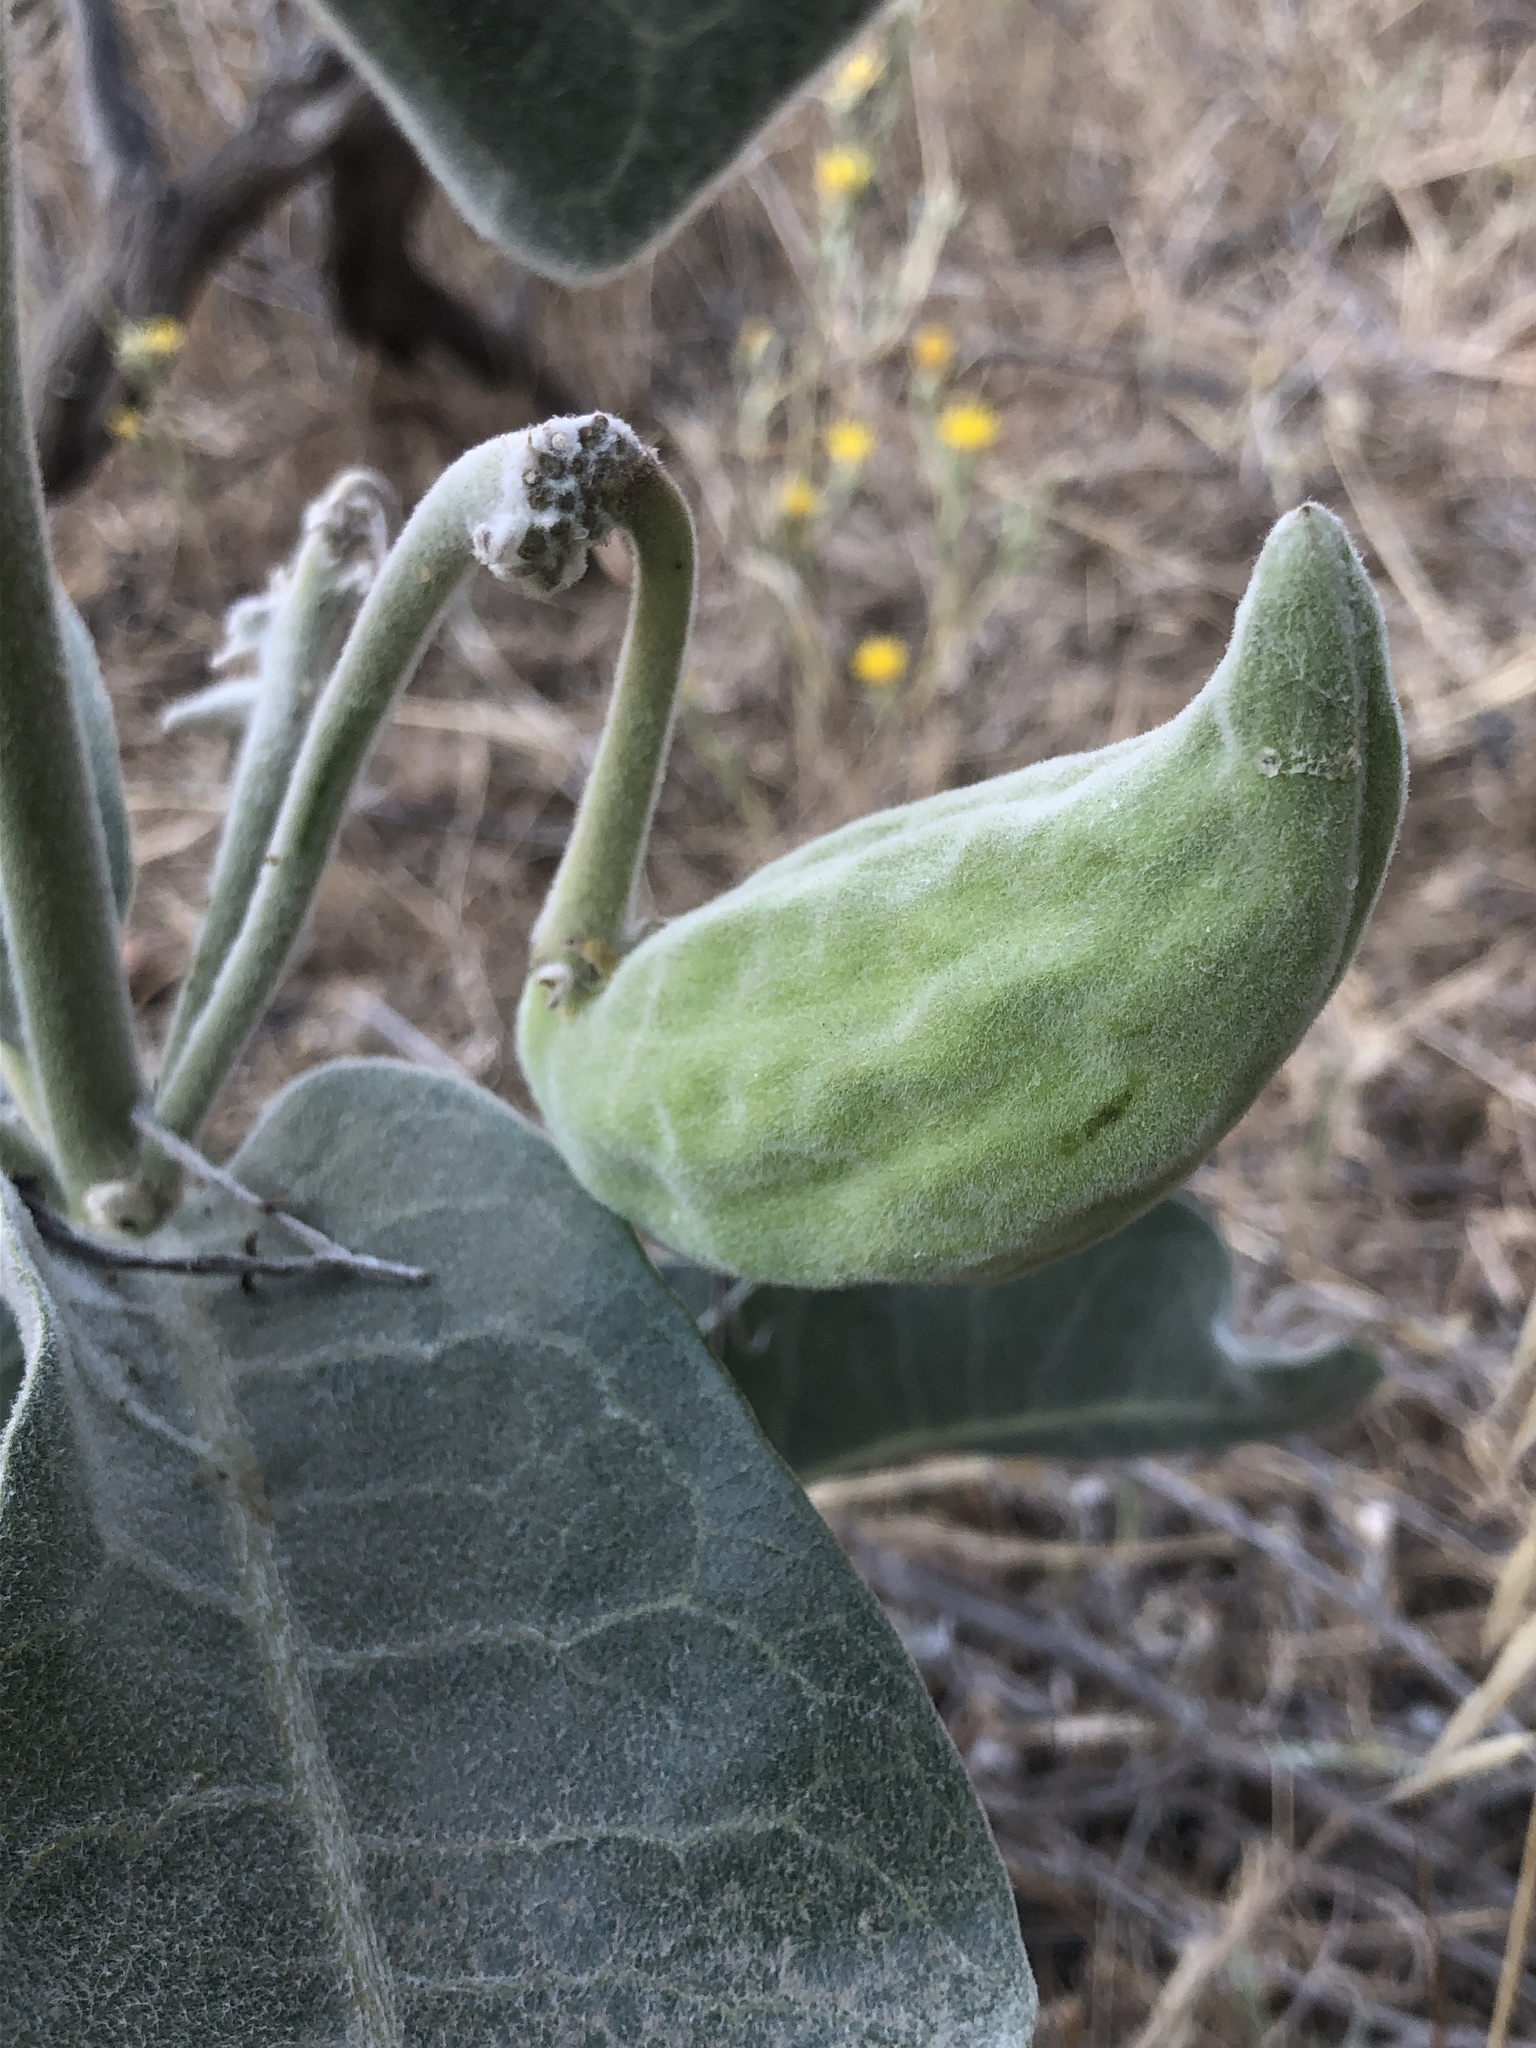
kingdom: Plantae
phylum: Tracheophyta
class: Magnoliopsida
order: Gentianales
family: Apocynaceae
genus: Asclepias
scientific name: Asclepias eriocarpa
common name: Indian milkweed
